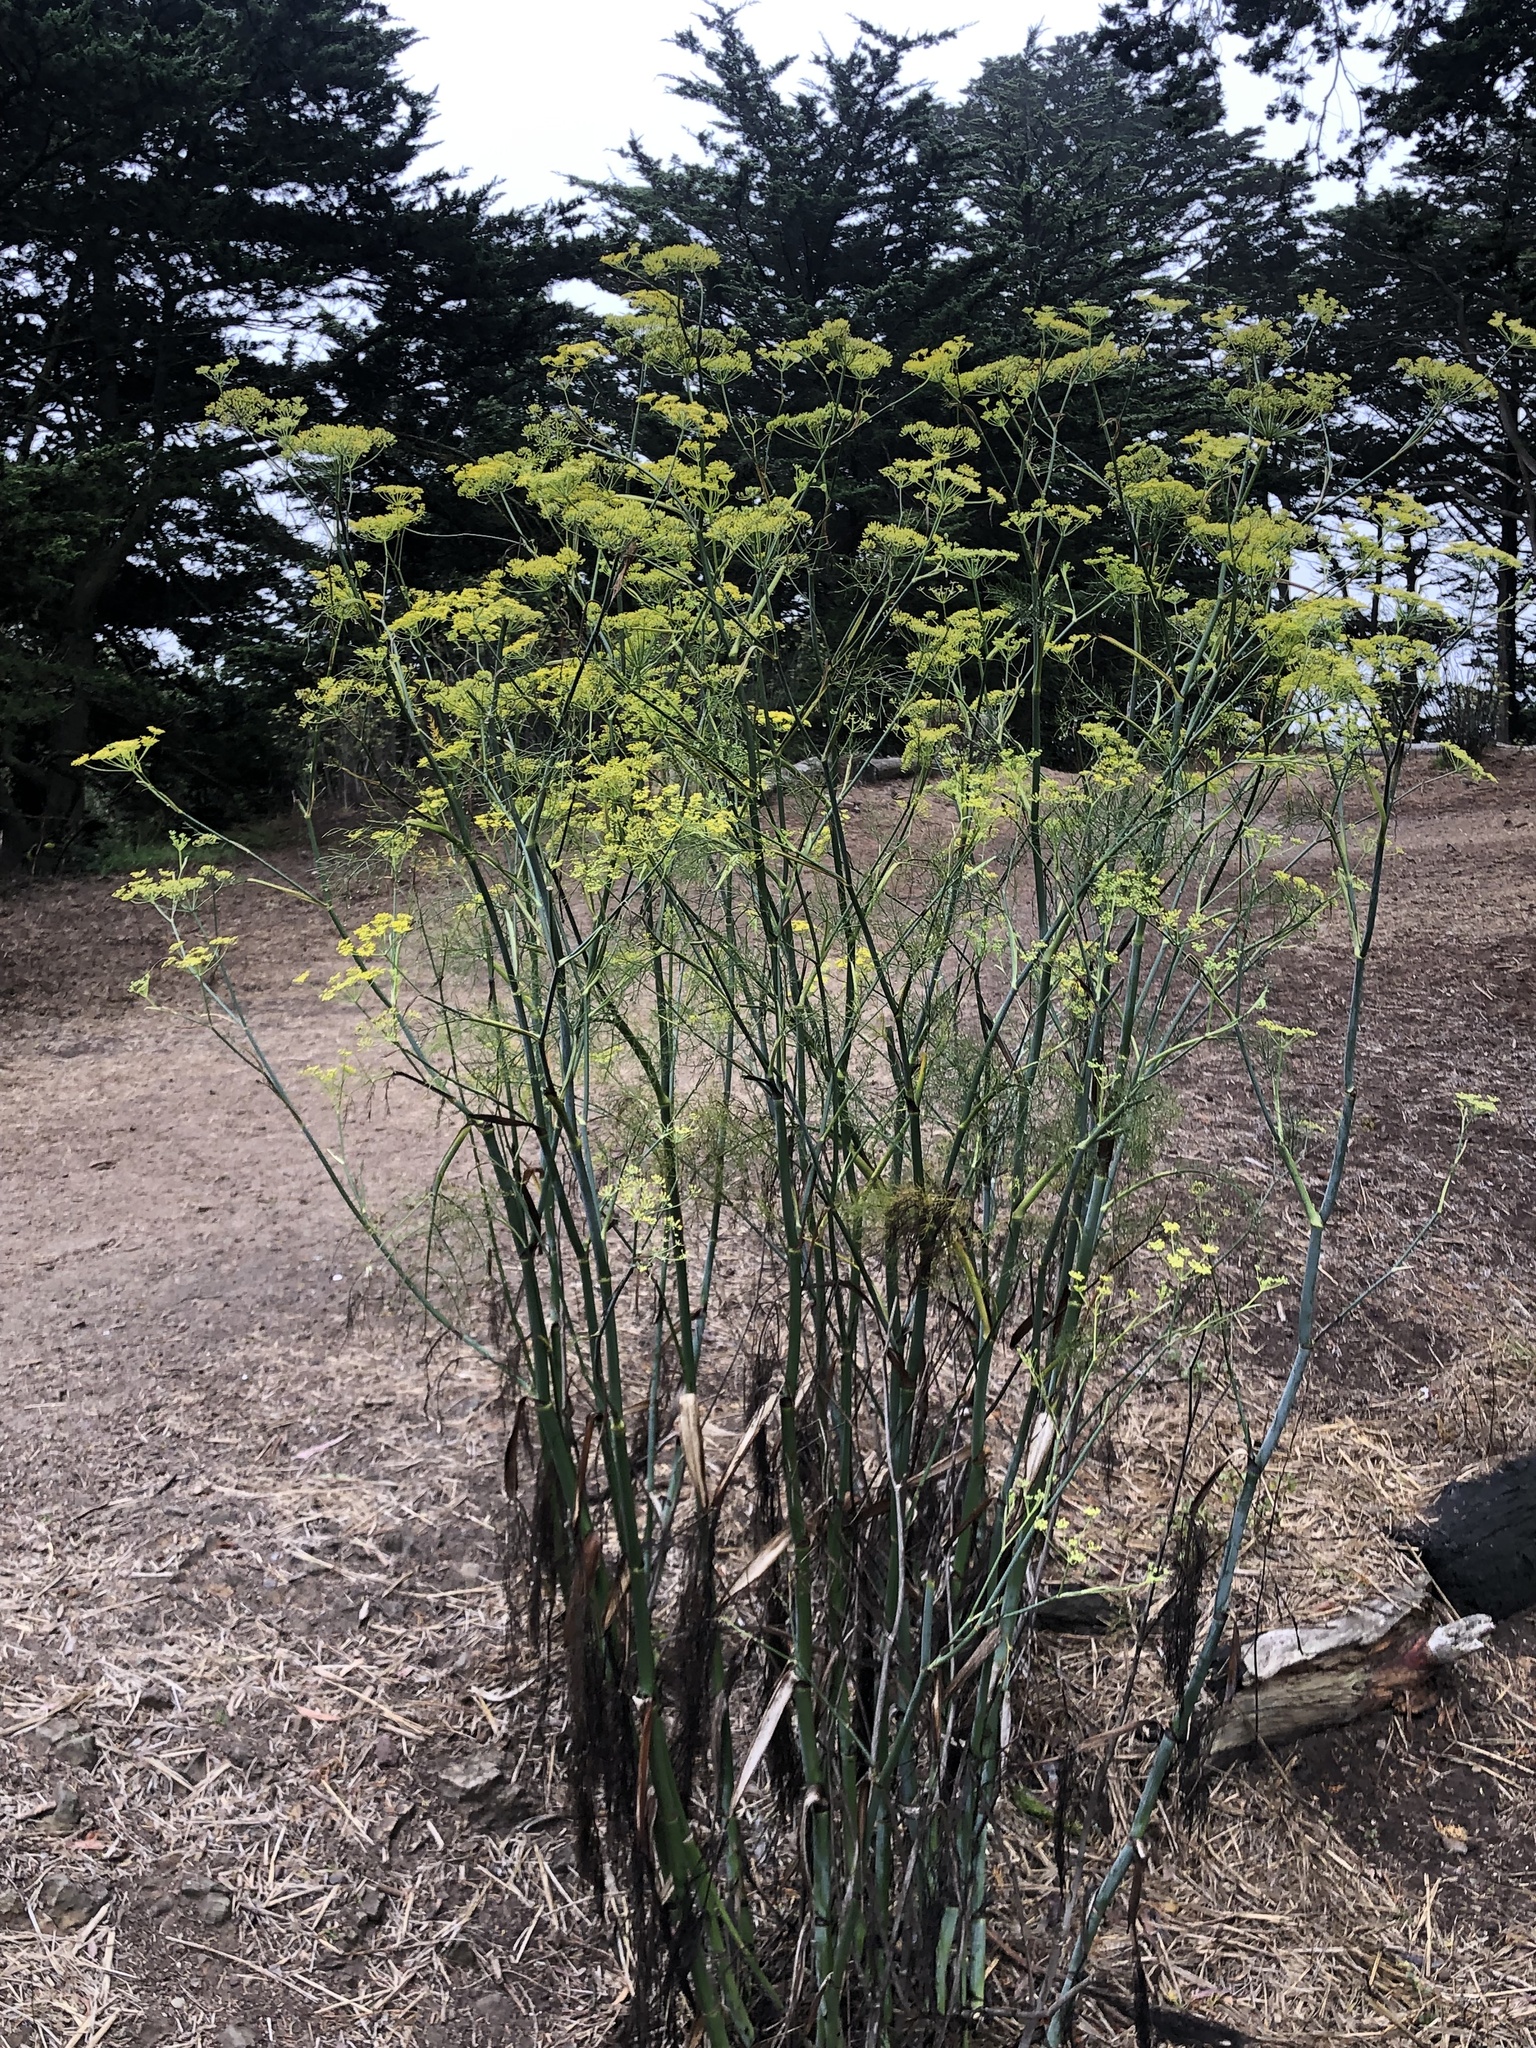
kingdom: Plantae
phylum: Tracheophyta
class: Magnoliopsida
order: Apiales
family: Apiaceae
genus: Foeniculum
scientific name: Foeniculum vulgare
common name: Fennel
